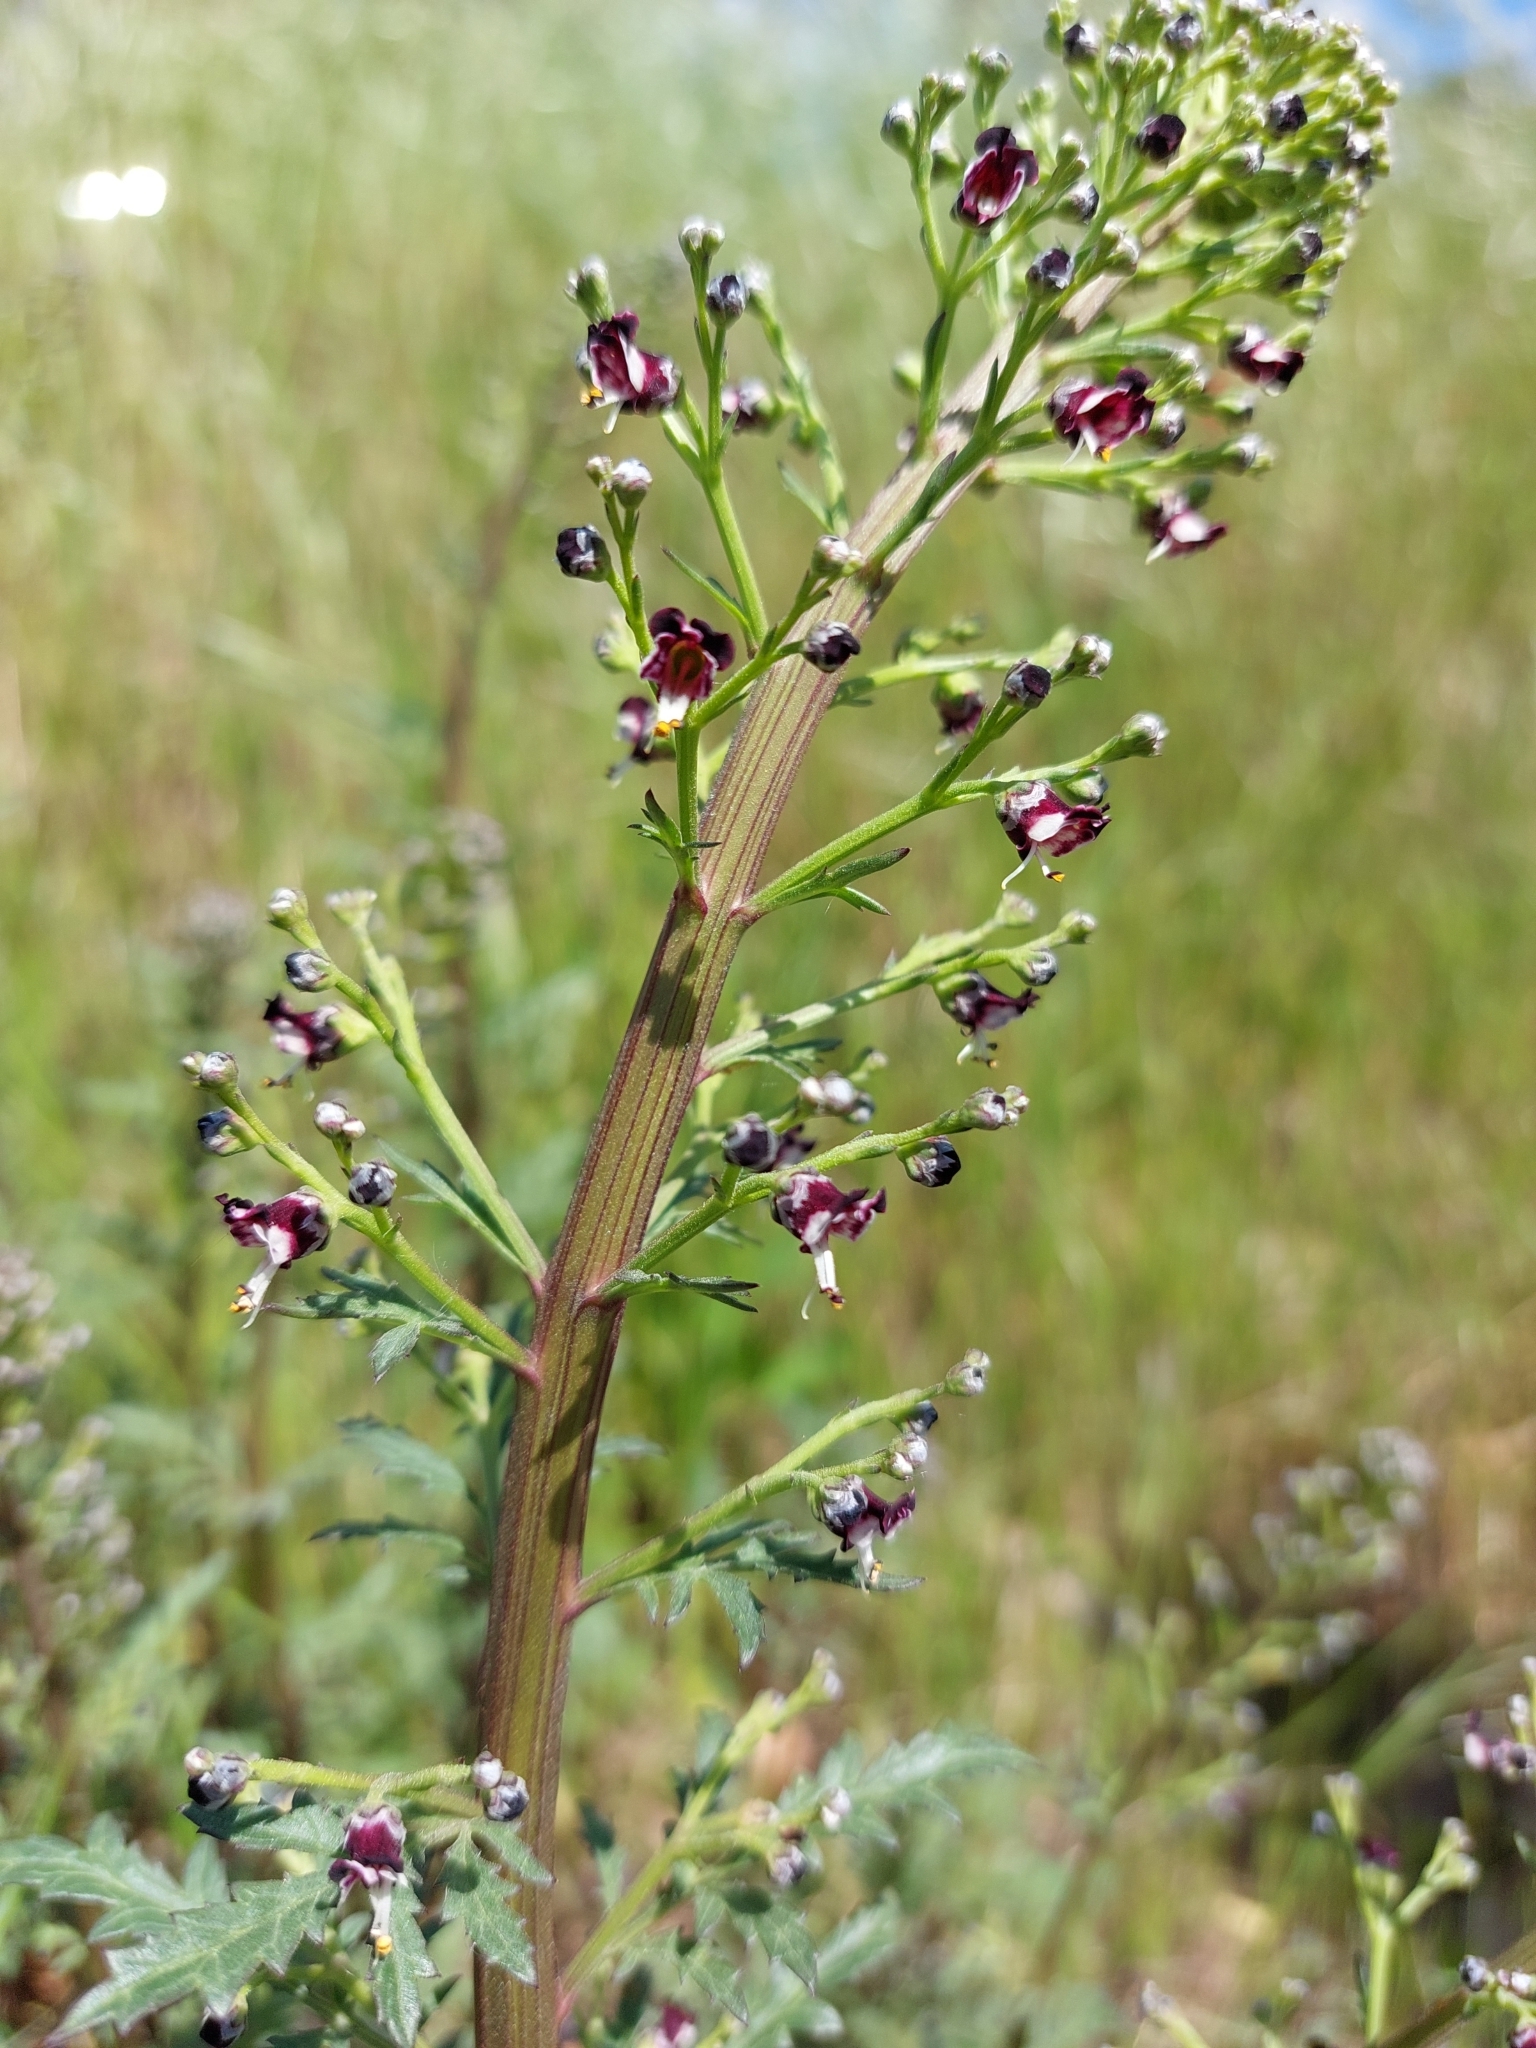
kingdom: Plantae
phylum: Tracheophyta
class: Magnoliopsida
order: Lamiales
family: Scrophulariaceae
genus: Scrophularia
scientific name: Scrophularia canina
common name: French figwort
